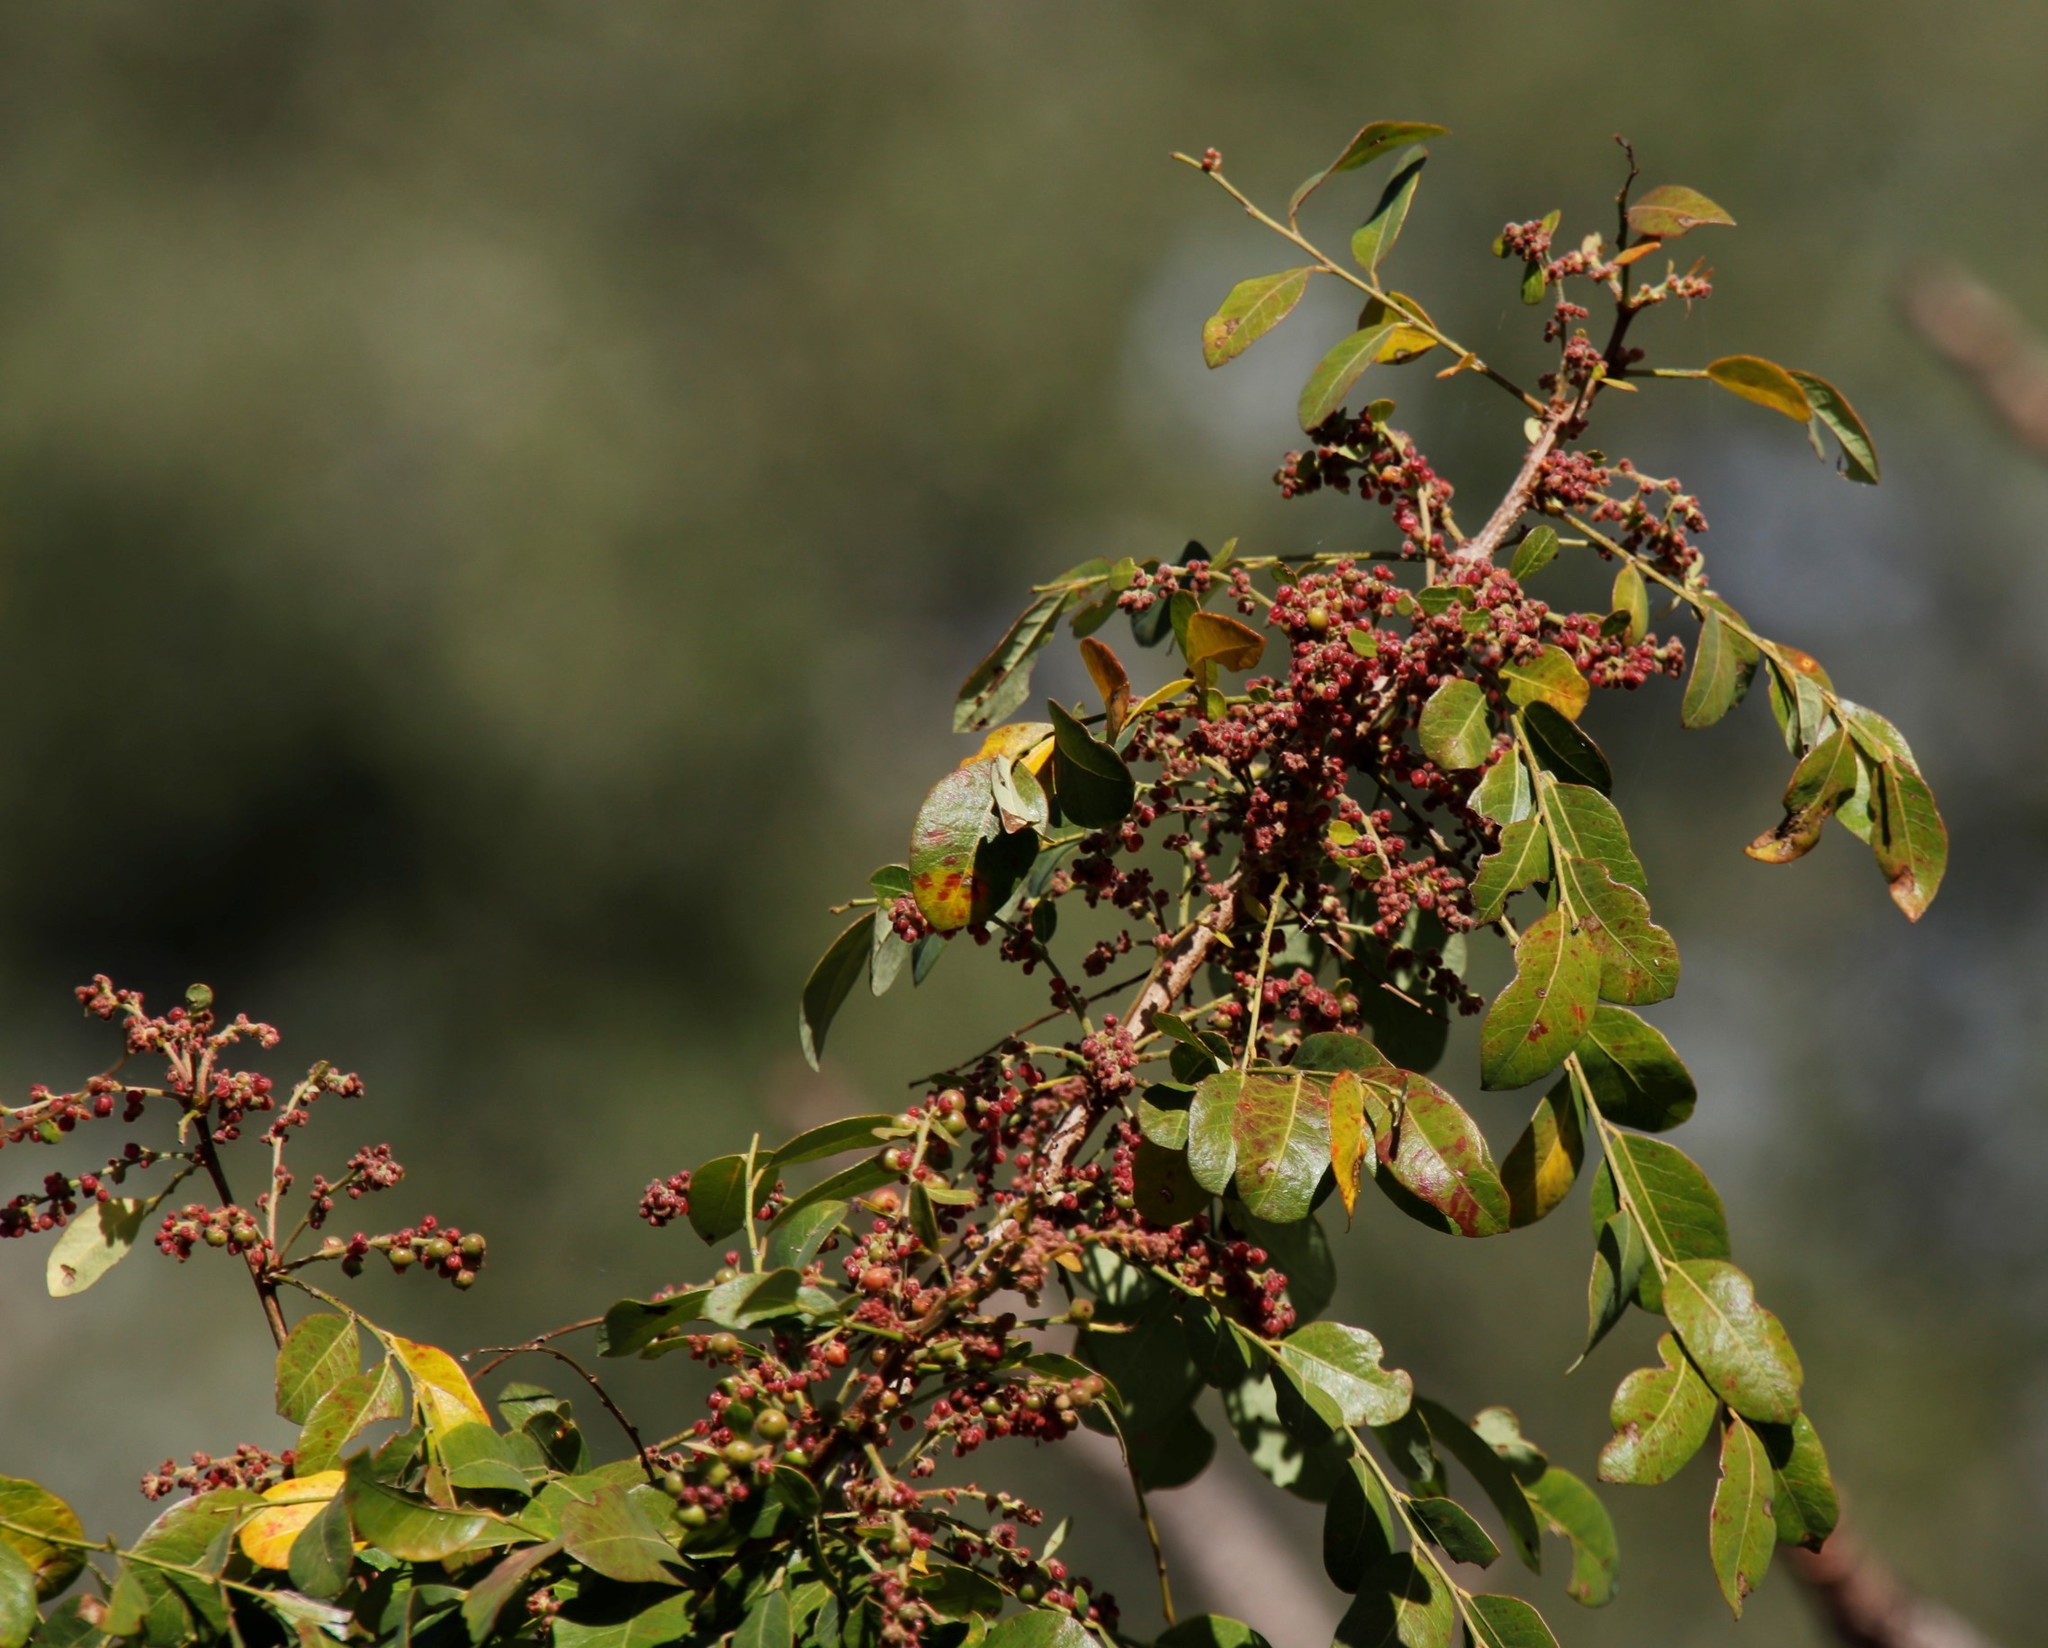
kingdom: Plantae
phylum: Tracheophyta
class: Magnoliopsida
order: Malpighiales
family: Phyllanthaceae
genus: Phyllanthus
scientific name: Phyllanthus reticulatus
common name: Potato bush
